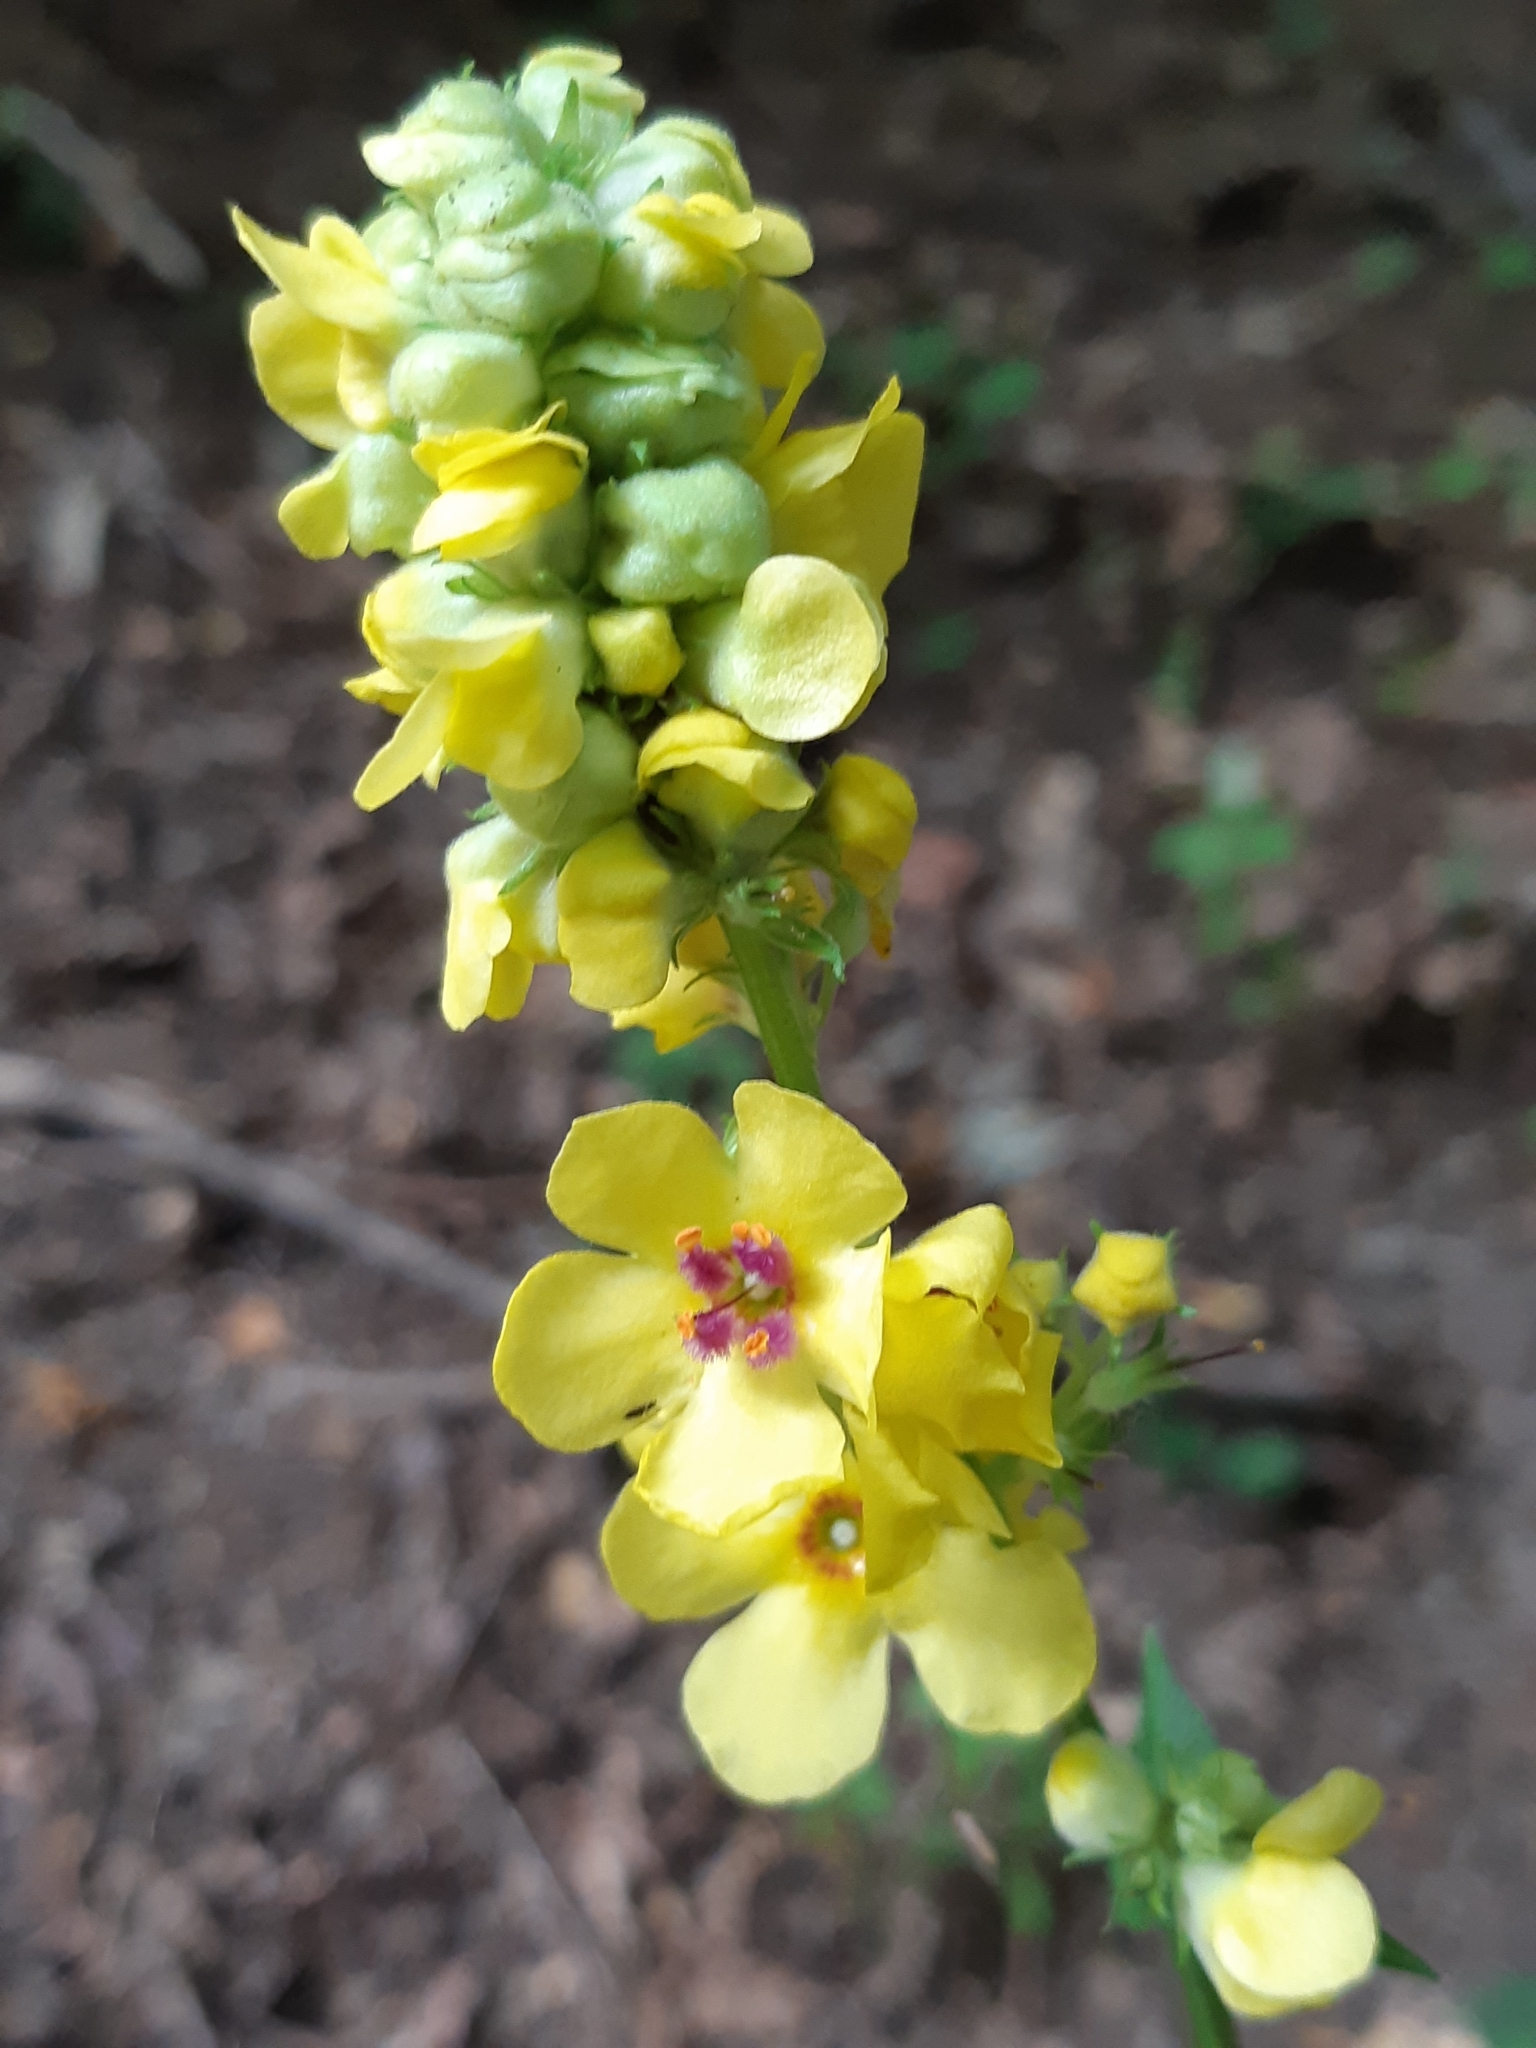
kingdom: Plantae
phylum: Tracheophyta
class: Magnoliopsida
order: Lamiales
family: Scrophulariaceae
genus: Verbascum
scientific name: Verbascum nigrum
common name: Dark mullein
